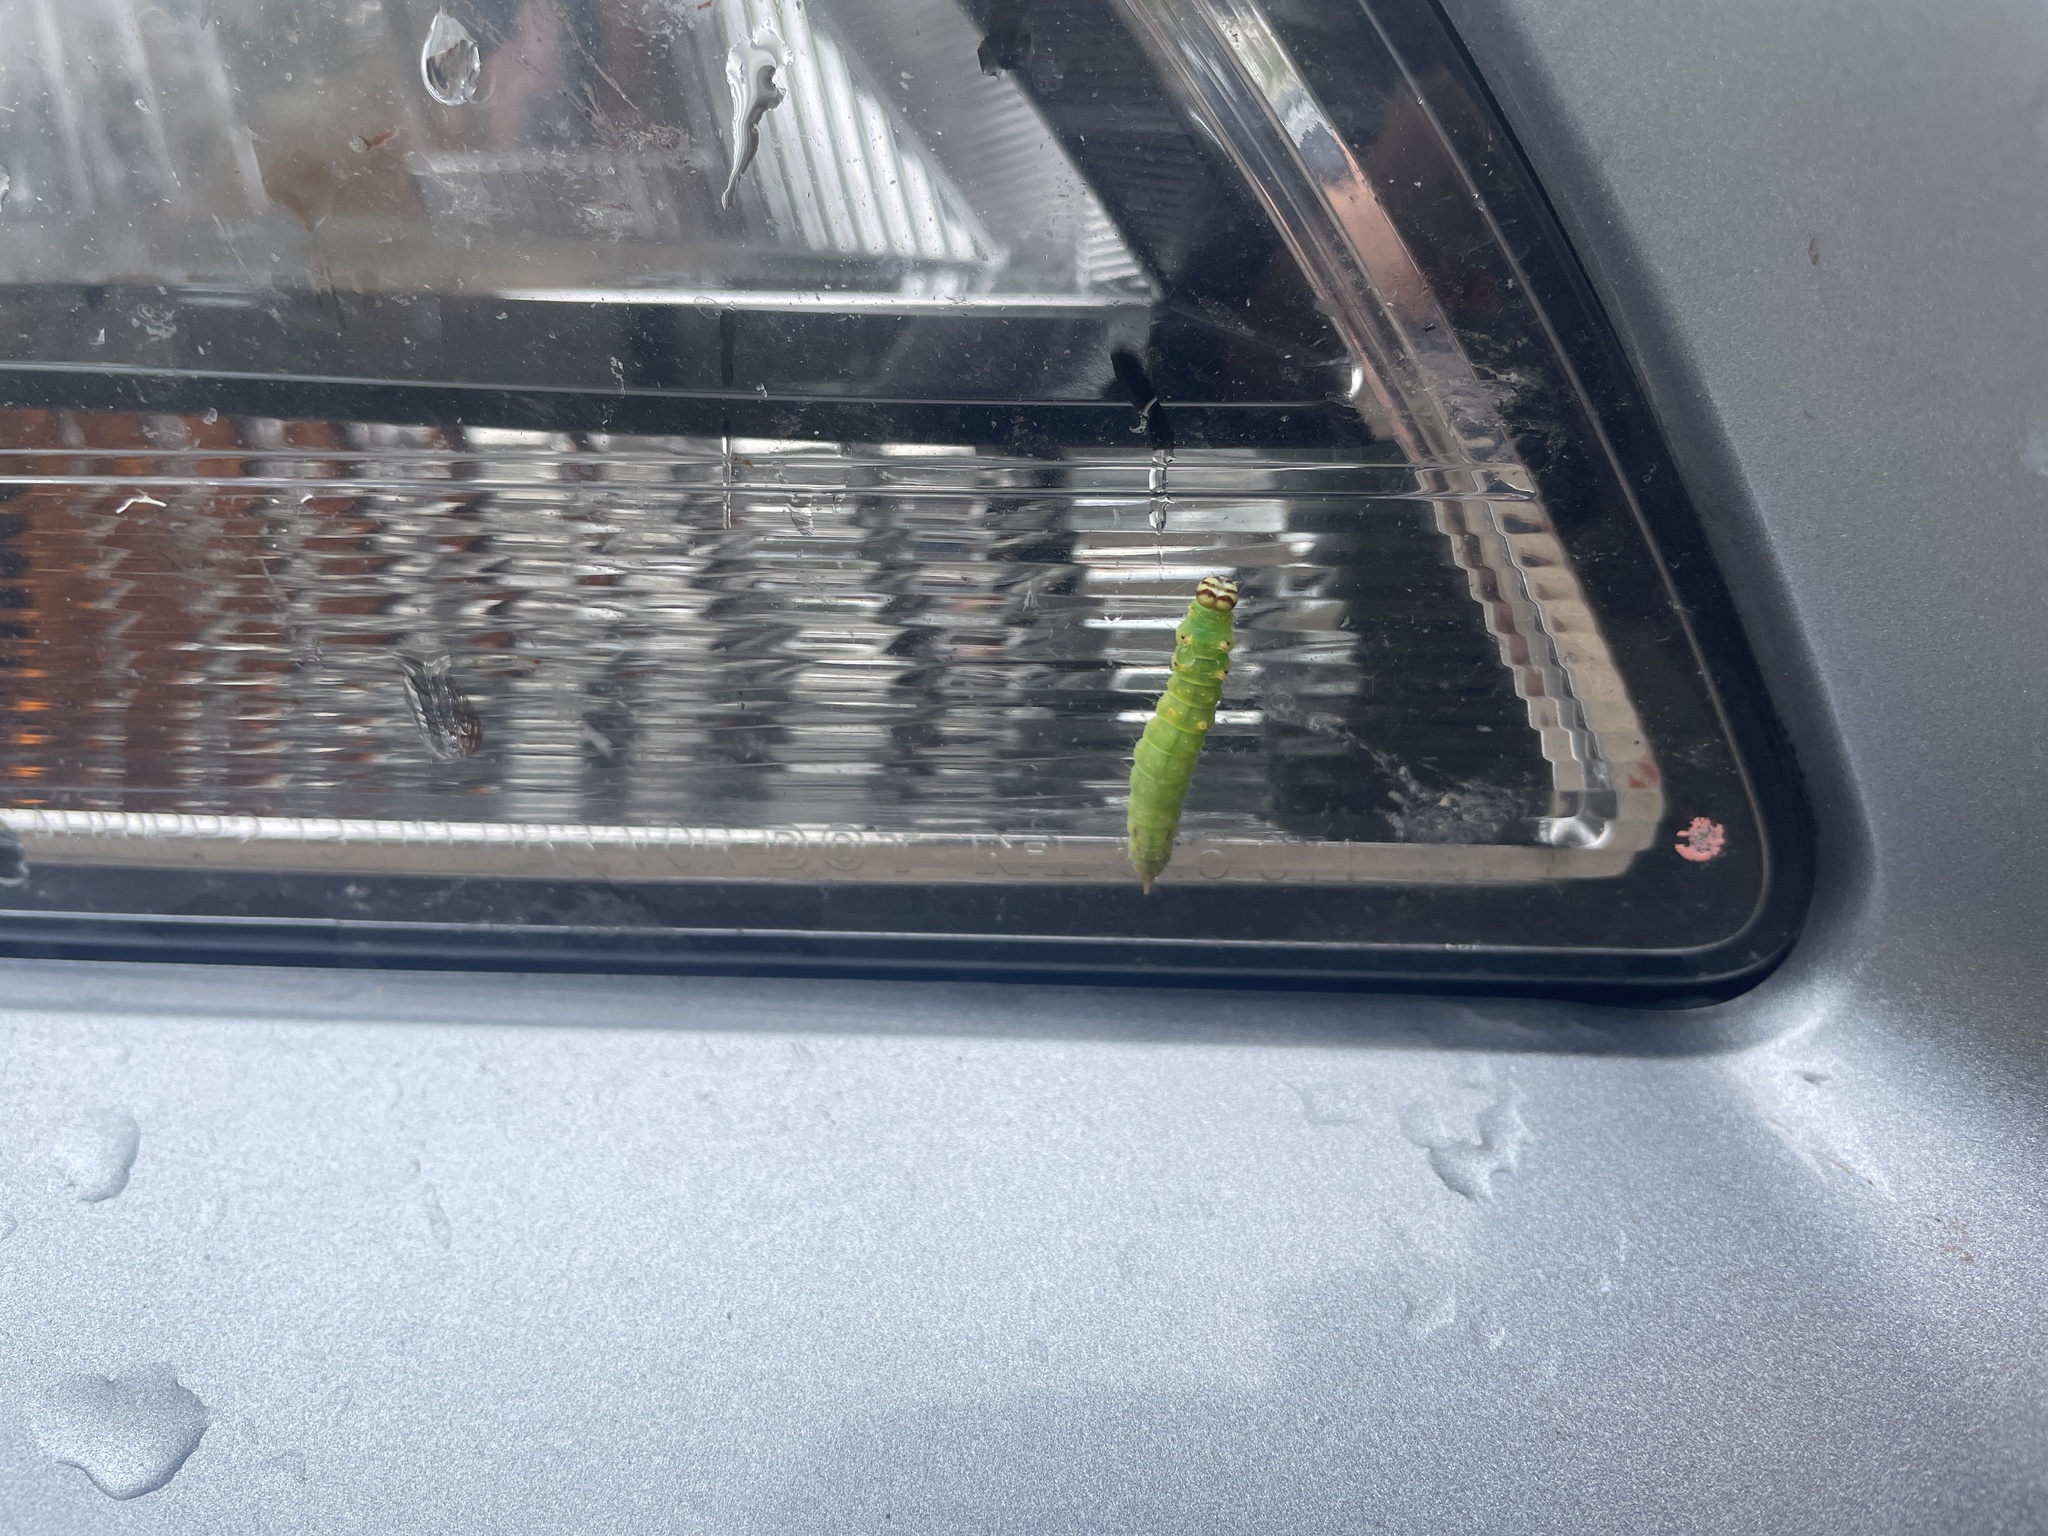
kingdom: Animalia
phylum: Arthropoda
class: Insecta
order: Lepidoptera
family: Drepanidae
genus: Drepana
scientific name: Drepana arcuata
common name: Arched hooktip moth
